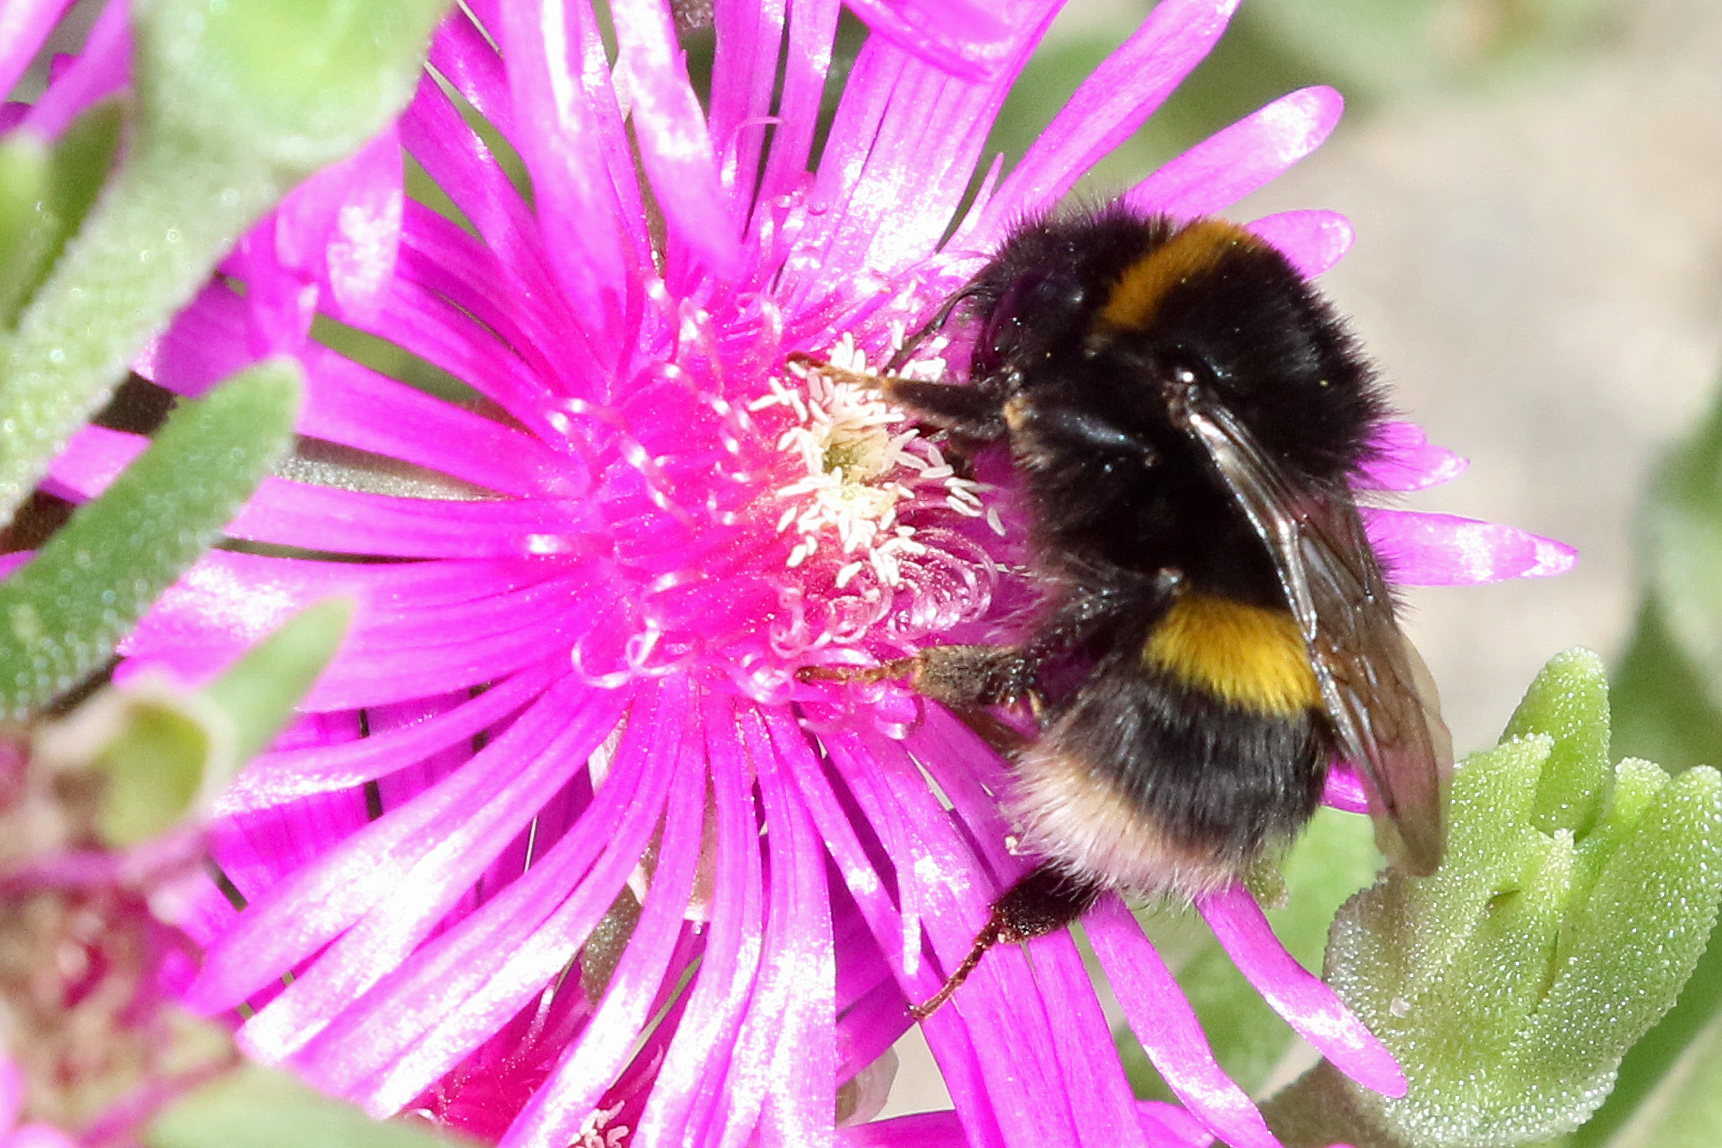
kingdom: Animalia
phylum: Arthropoda
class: Insecta
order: Hymenoptera
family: Apidae
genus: Bombus
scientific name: Bombus terrestris
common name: Buff-tailed bumblebee
